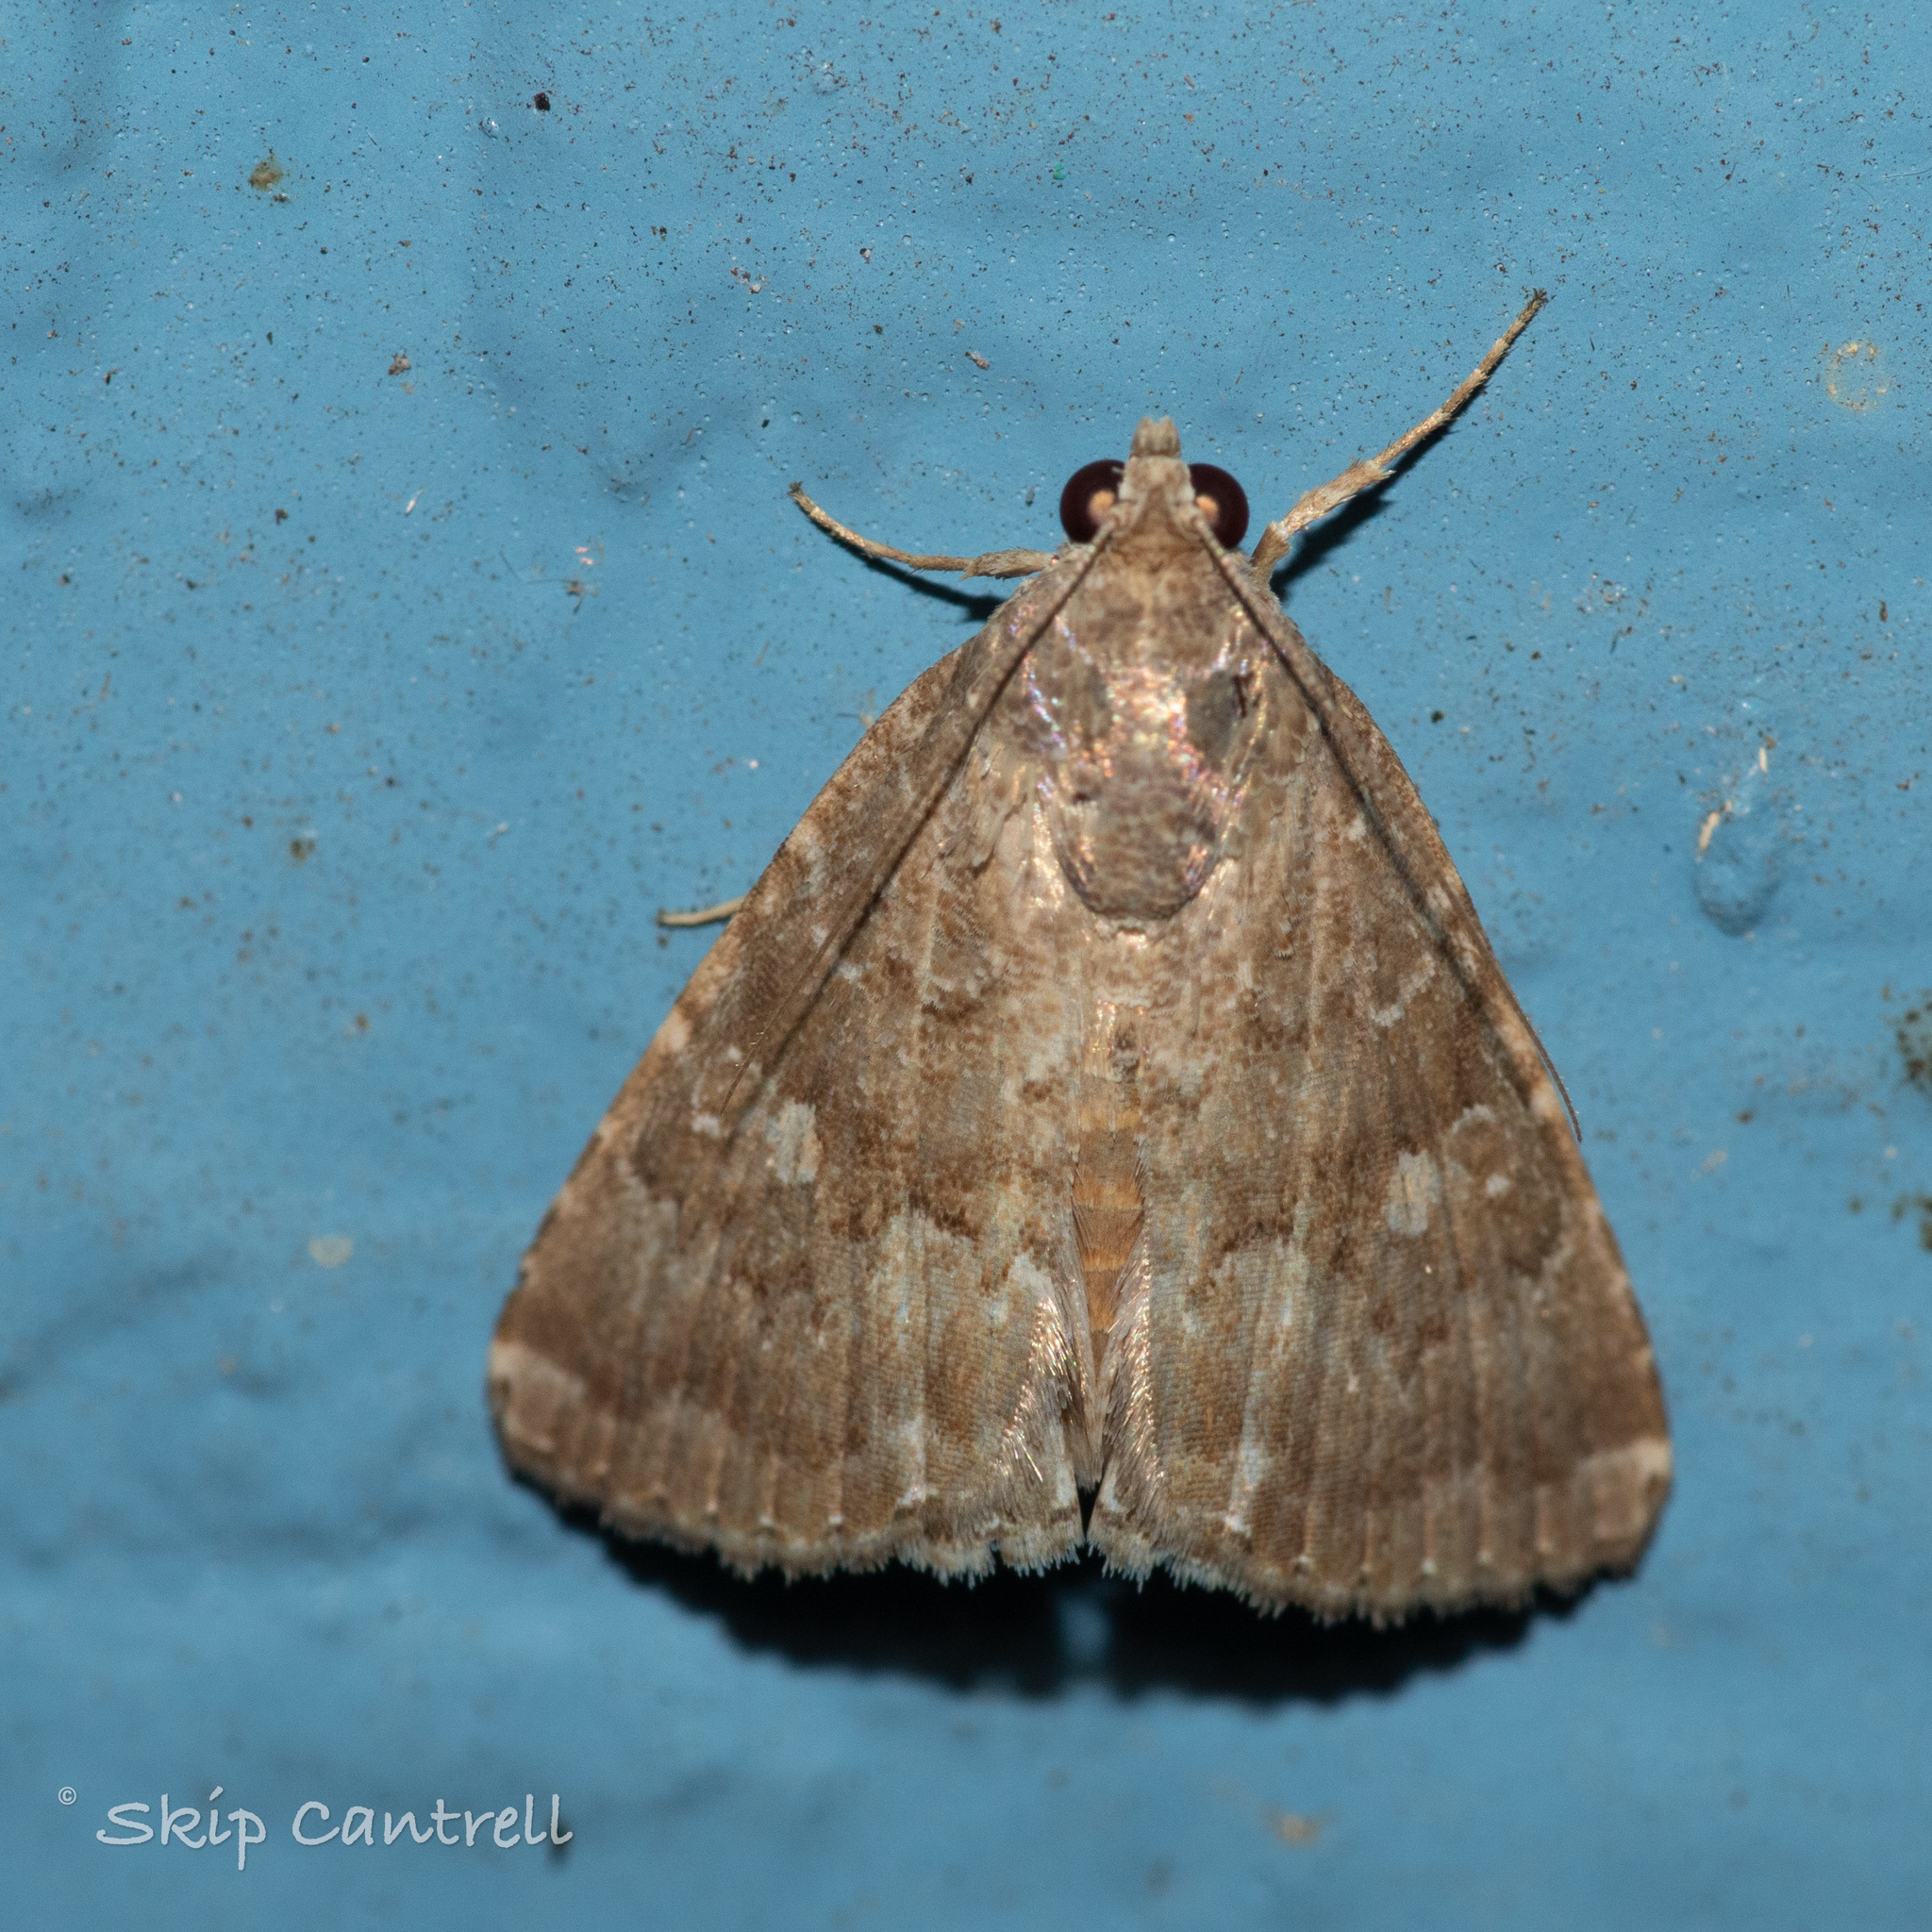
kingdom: Animalia
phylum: Arthropoda
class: Insecta
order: Lepidoptera
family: Noctuidae
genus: Amyna
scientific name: Amyna stricta
